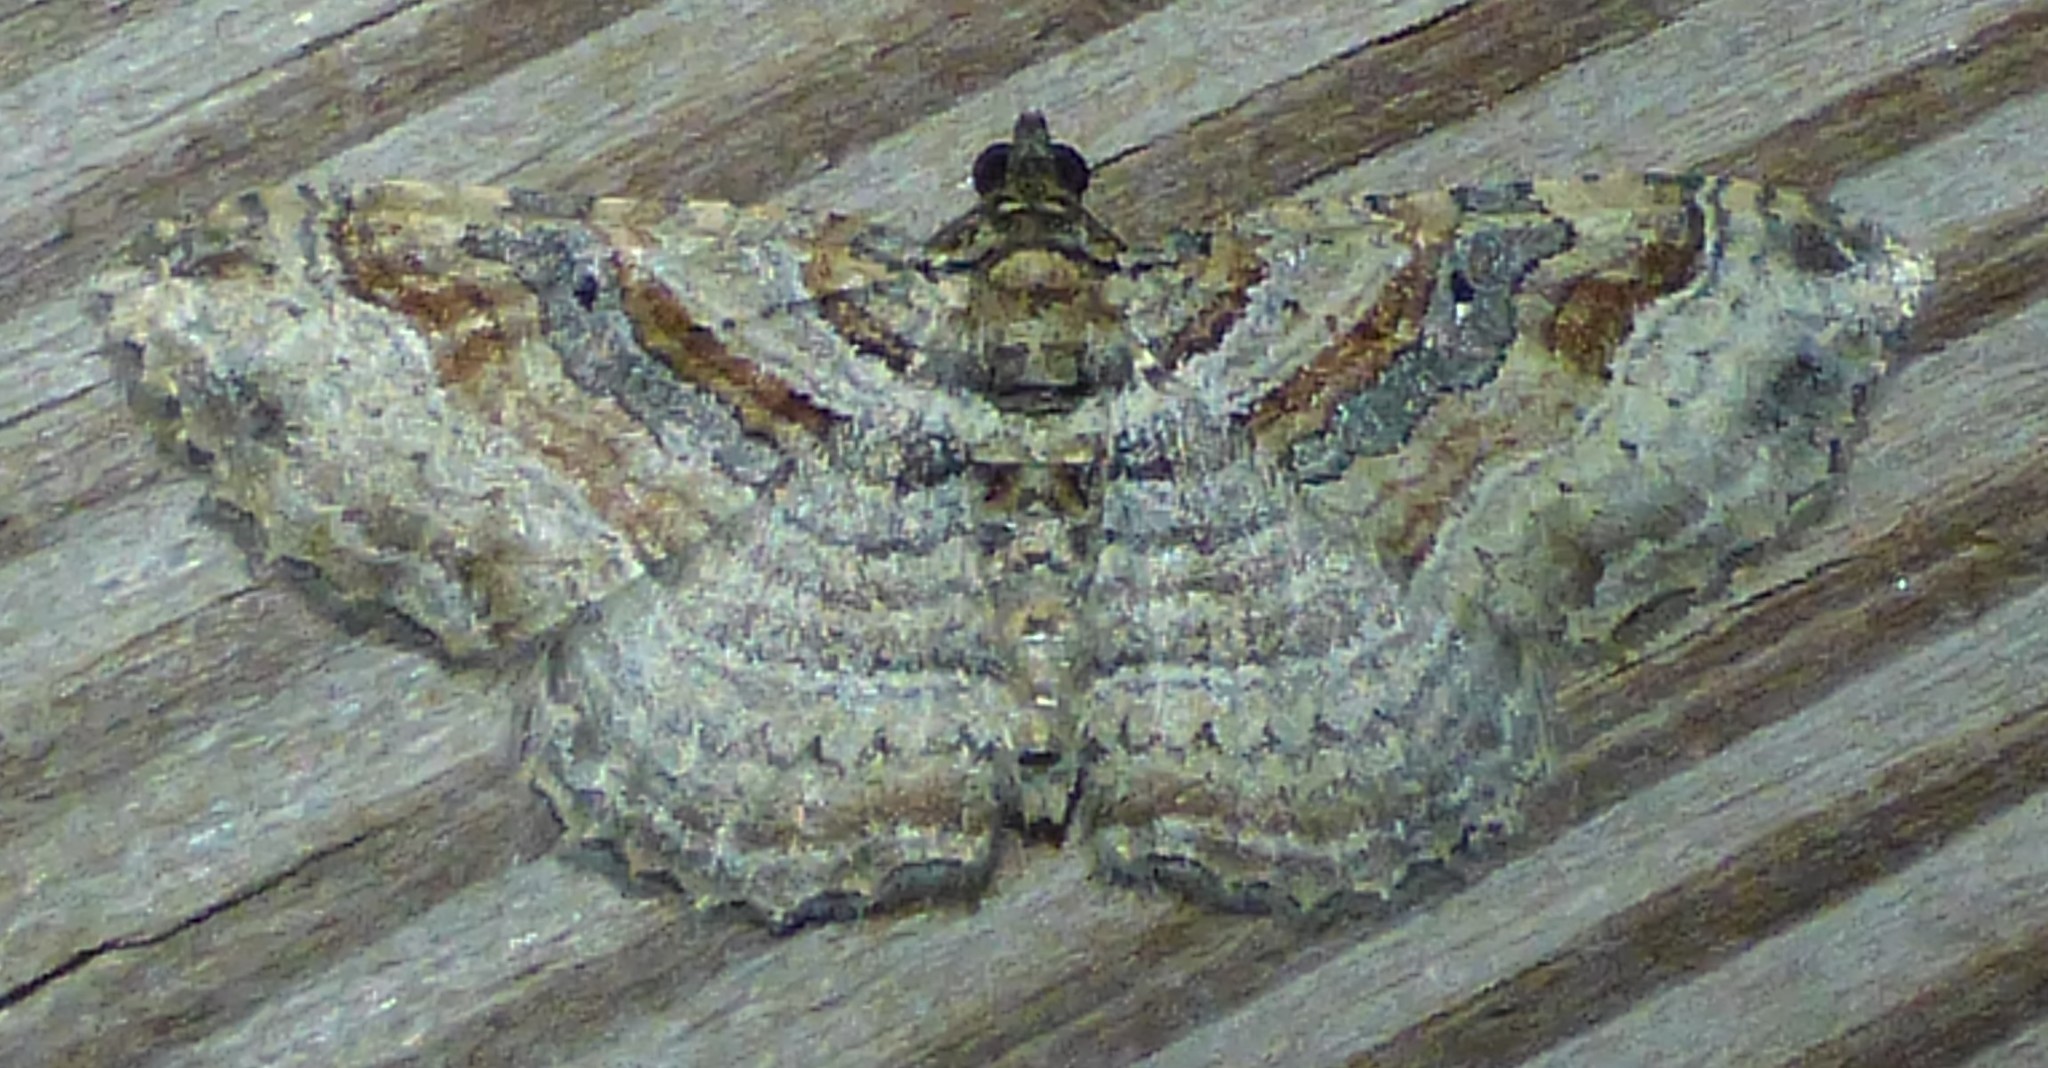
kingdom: Animalia
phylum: Arthropoda
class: Insecta
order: Lepidoptera
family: Geometridae
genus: Costaconvexa
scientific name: Costaconvexa centrostrigaria
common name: Bent-line carpet
